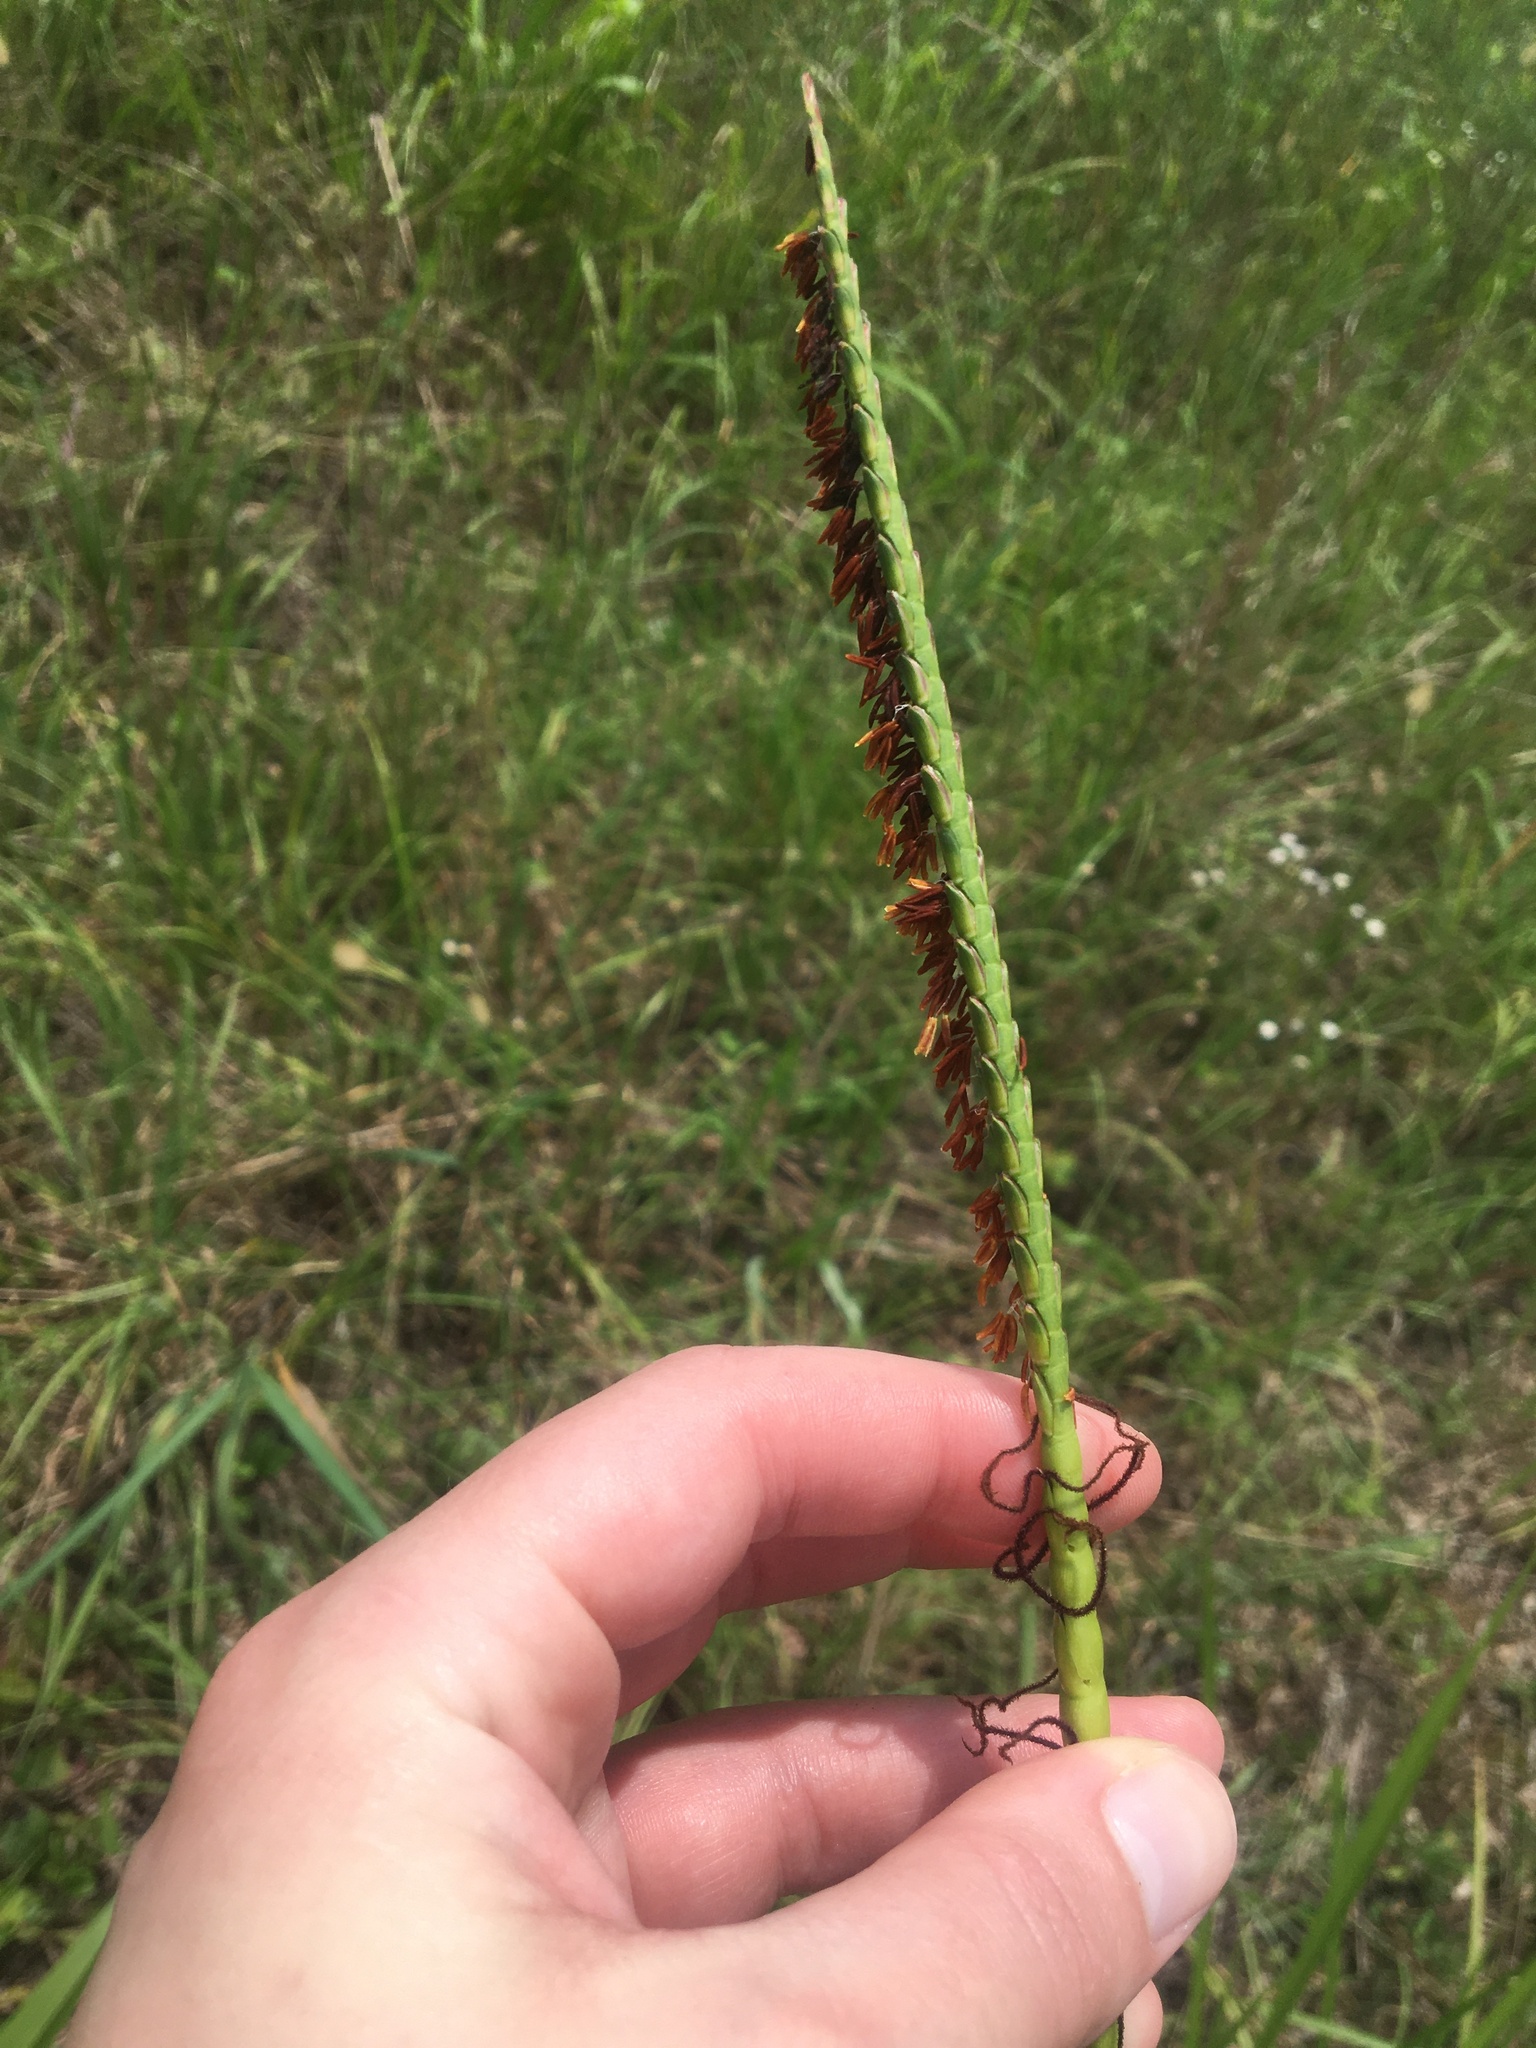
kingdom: Plantae
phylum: Tracheophyta
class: Liliopsida
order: Poales
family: Poaceae
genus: Tripsacum
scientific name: Tripsacum dactyloides
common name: Buffalo-grass
